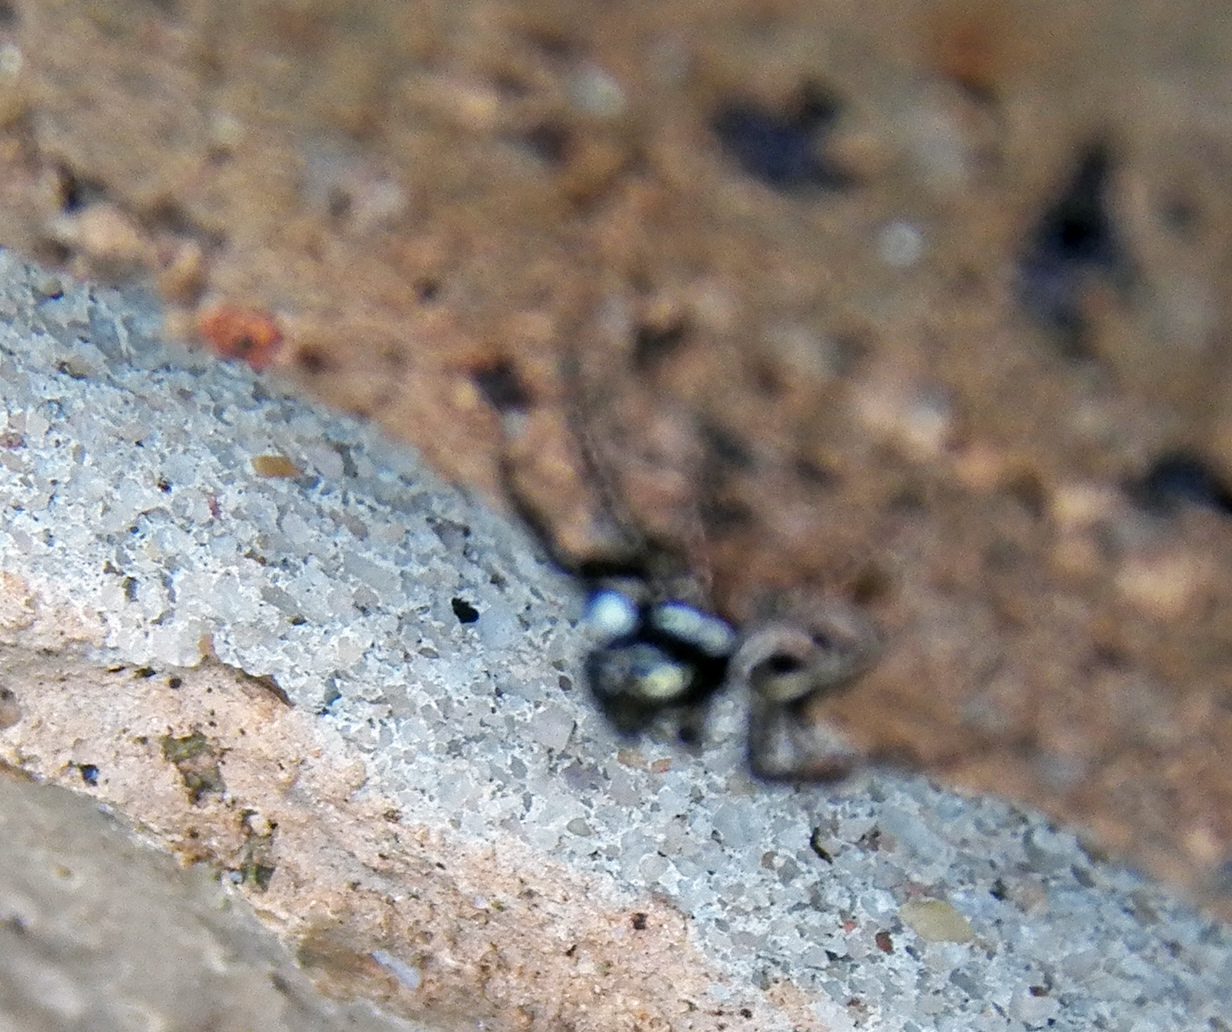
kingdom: Animalia
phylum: Arthropoda
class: Arachnida
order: Araneae
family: Salticidae
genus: Anasaitis
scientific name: Anasaitis canosa
